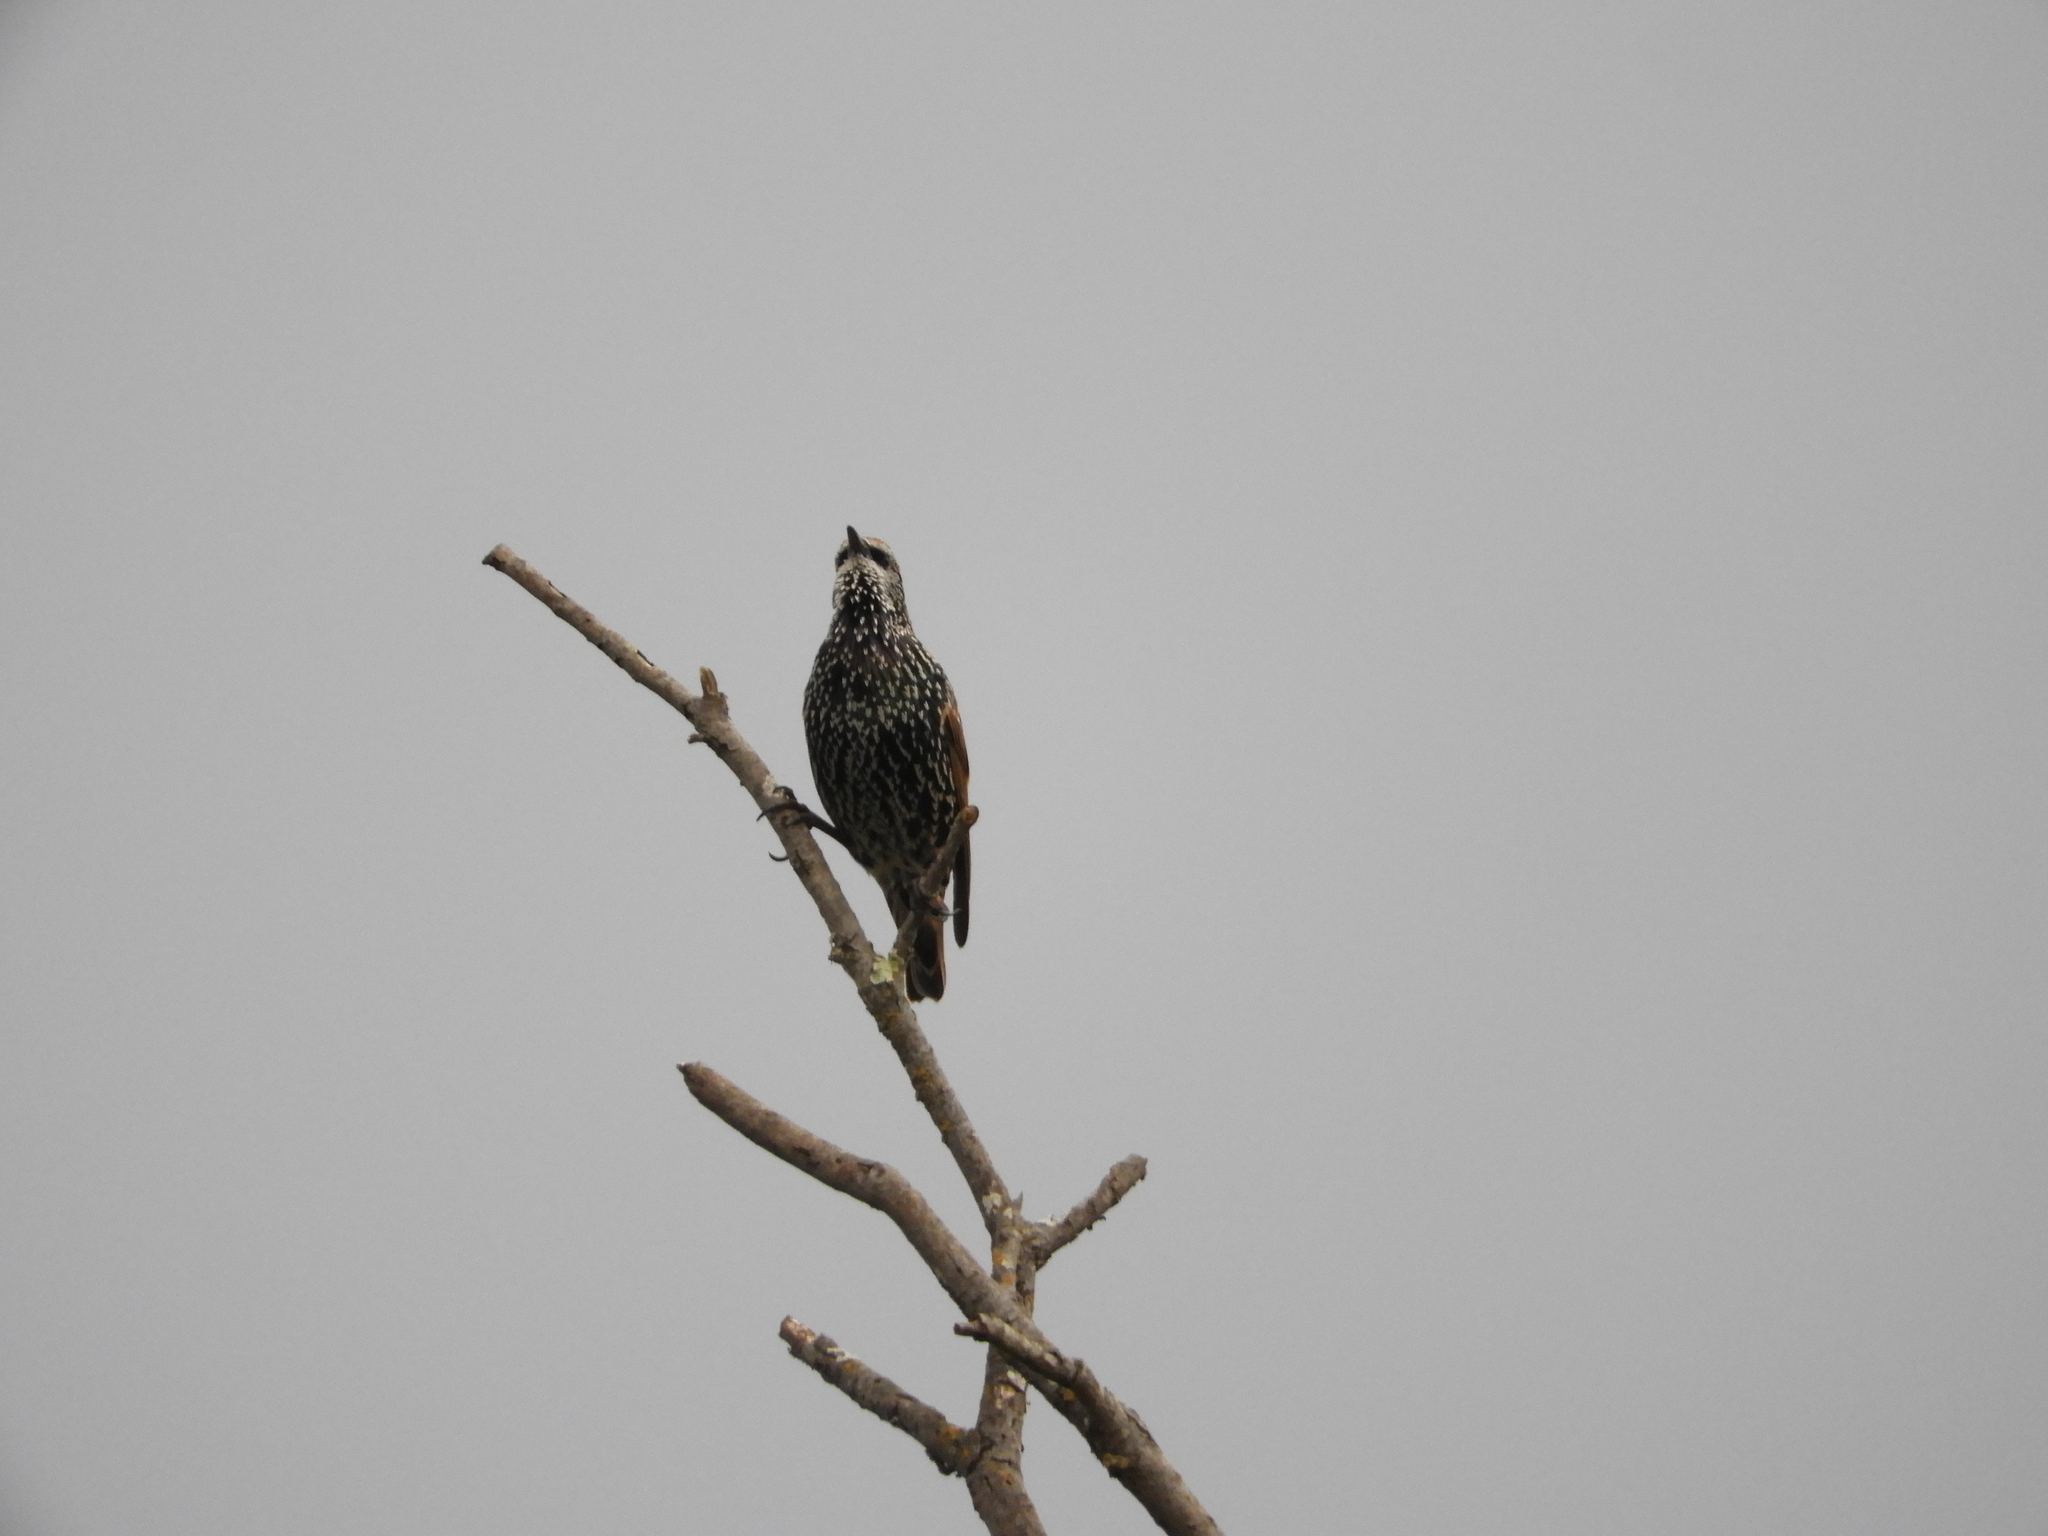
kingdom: Animalia
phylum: Chordata
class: Aves
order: Passeriformes
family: Sturnidae
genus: Sturnus
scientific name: Sturnus vulgaris
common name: Common starling
